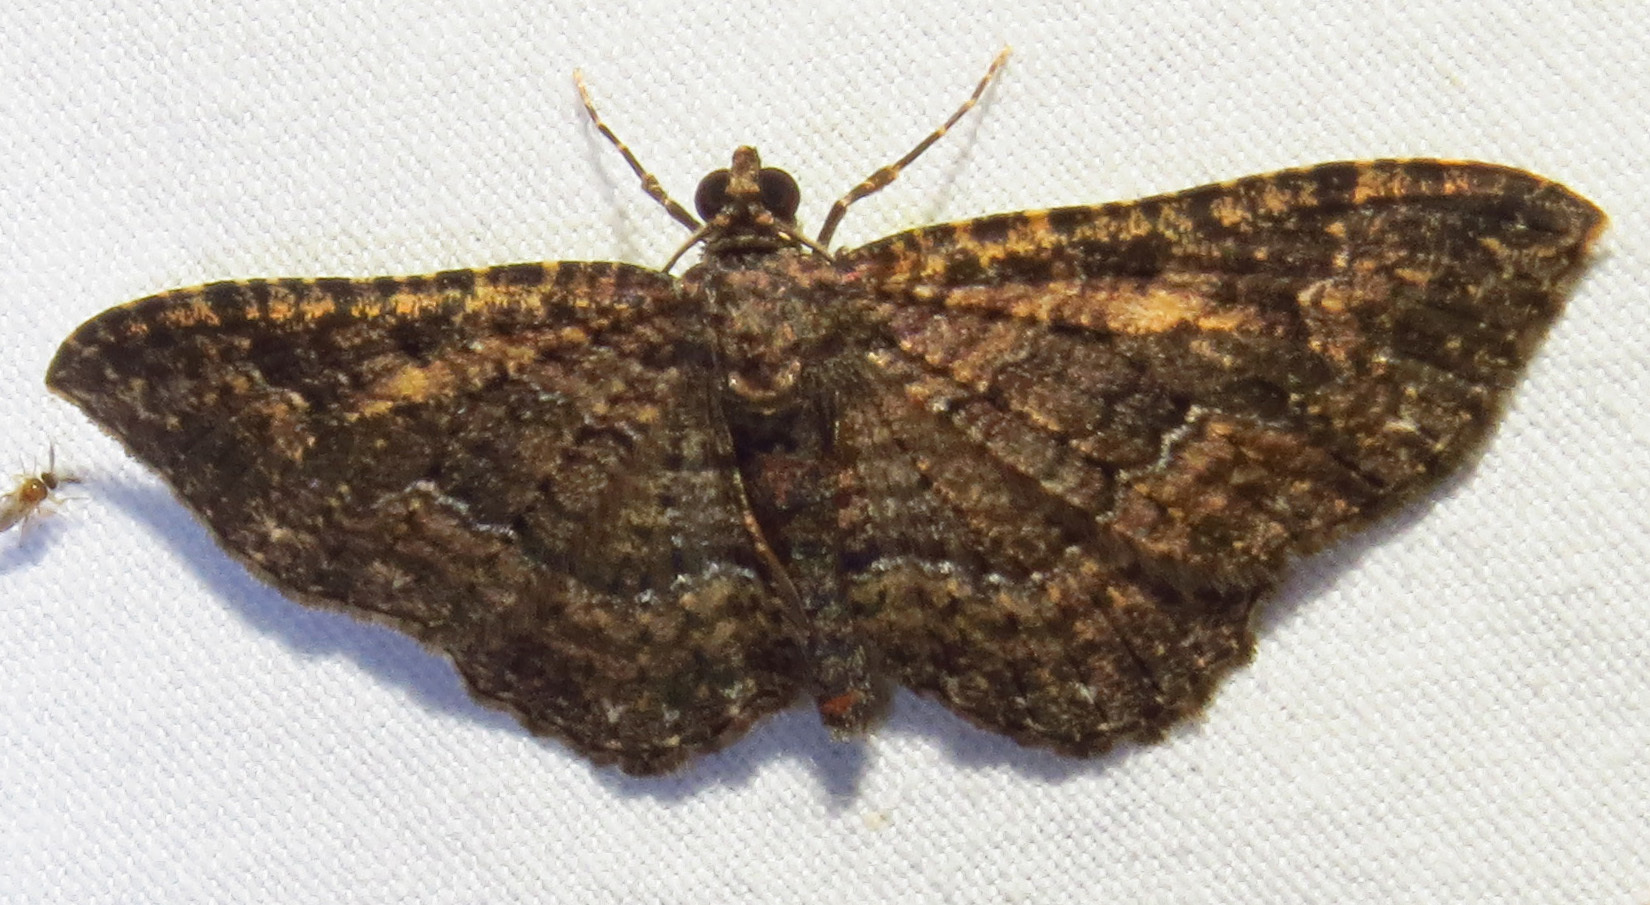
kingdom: Animalia
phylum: Arthropoda
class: Insecta
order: Lepidoptera
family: Geometridae
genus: Disclisioprocta
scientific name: Disclisioprocta stellata
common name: Somber carpet
